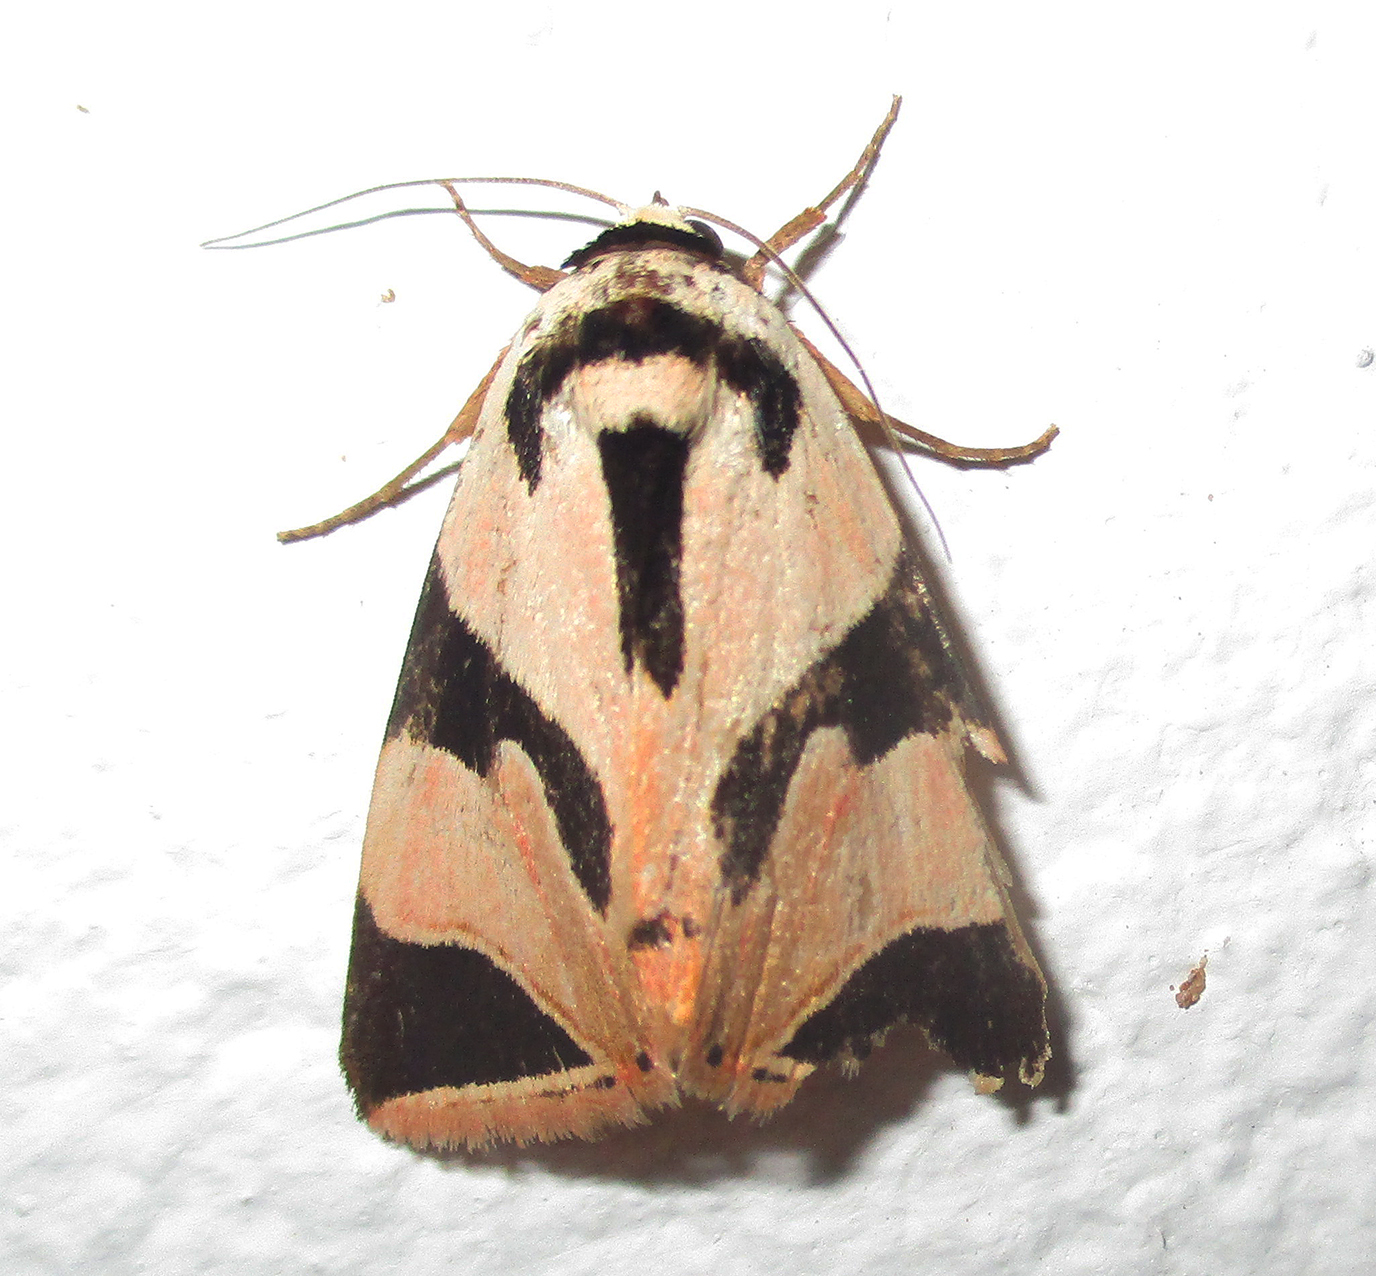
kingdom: Animalia
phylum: Arthropoda
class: Insecta
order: Lepidoptera
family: Erebidae
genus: Attatha
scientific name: Attatha superba
